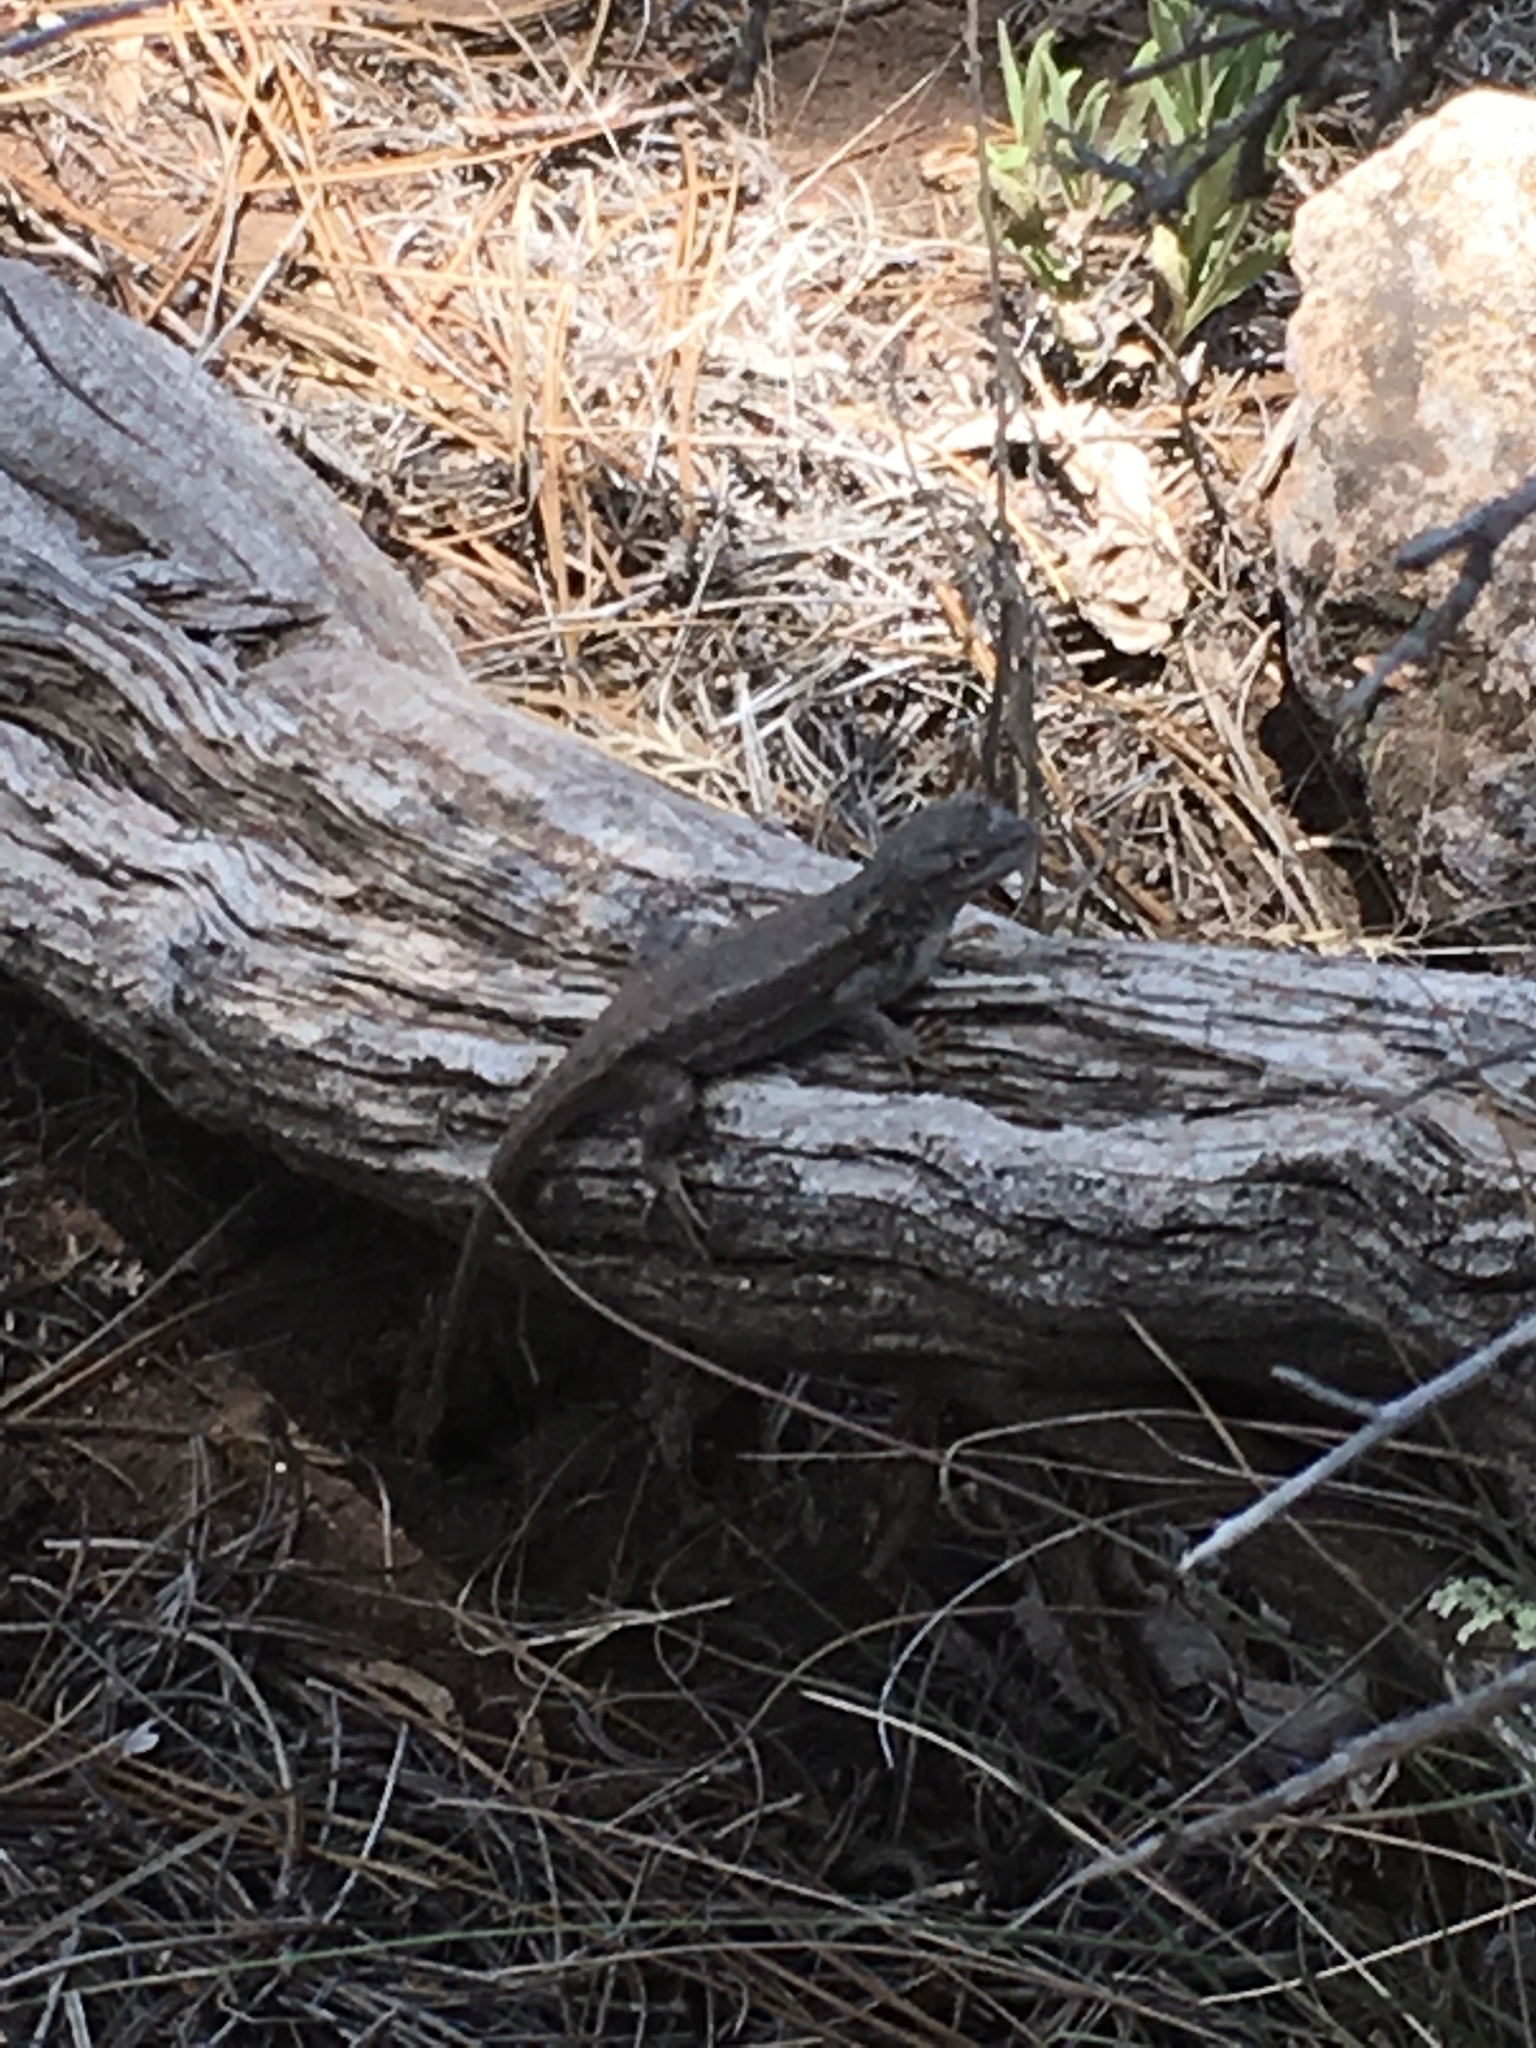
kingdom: Animalia
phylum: Chordata
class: Squamata
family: Phrynosomatidae
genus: Sceloporus
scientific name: Sceloporus tristichus
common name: Plateau fence lizard
